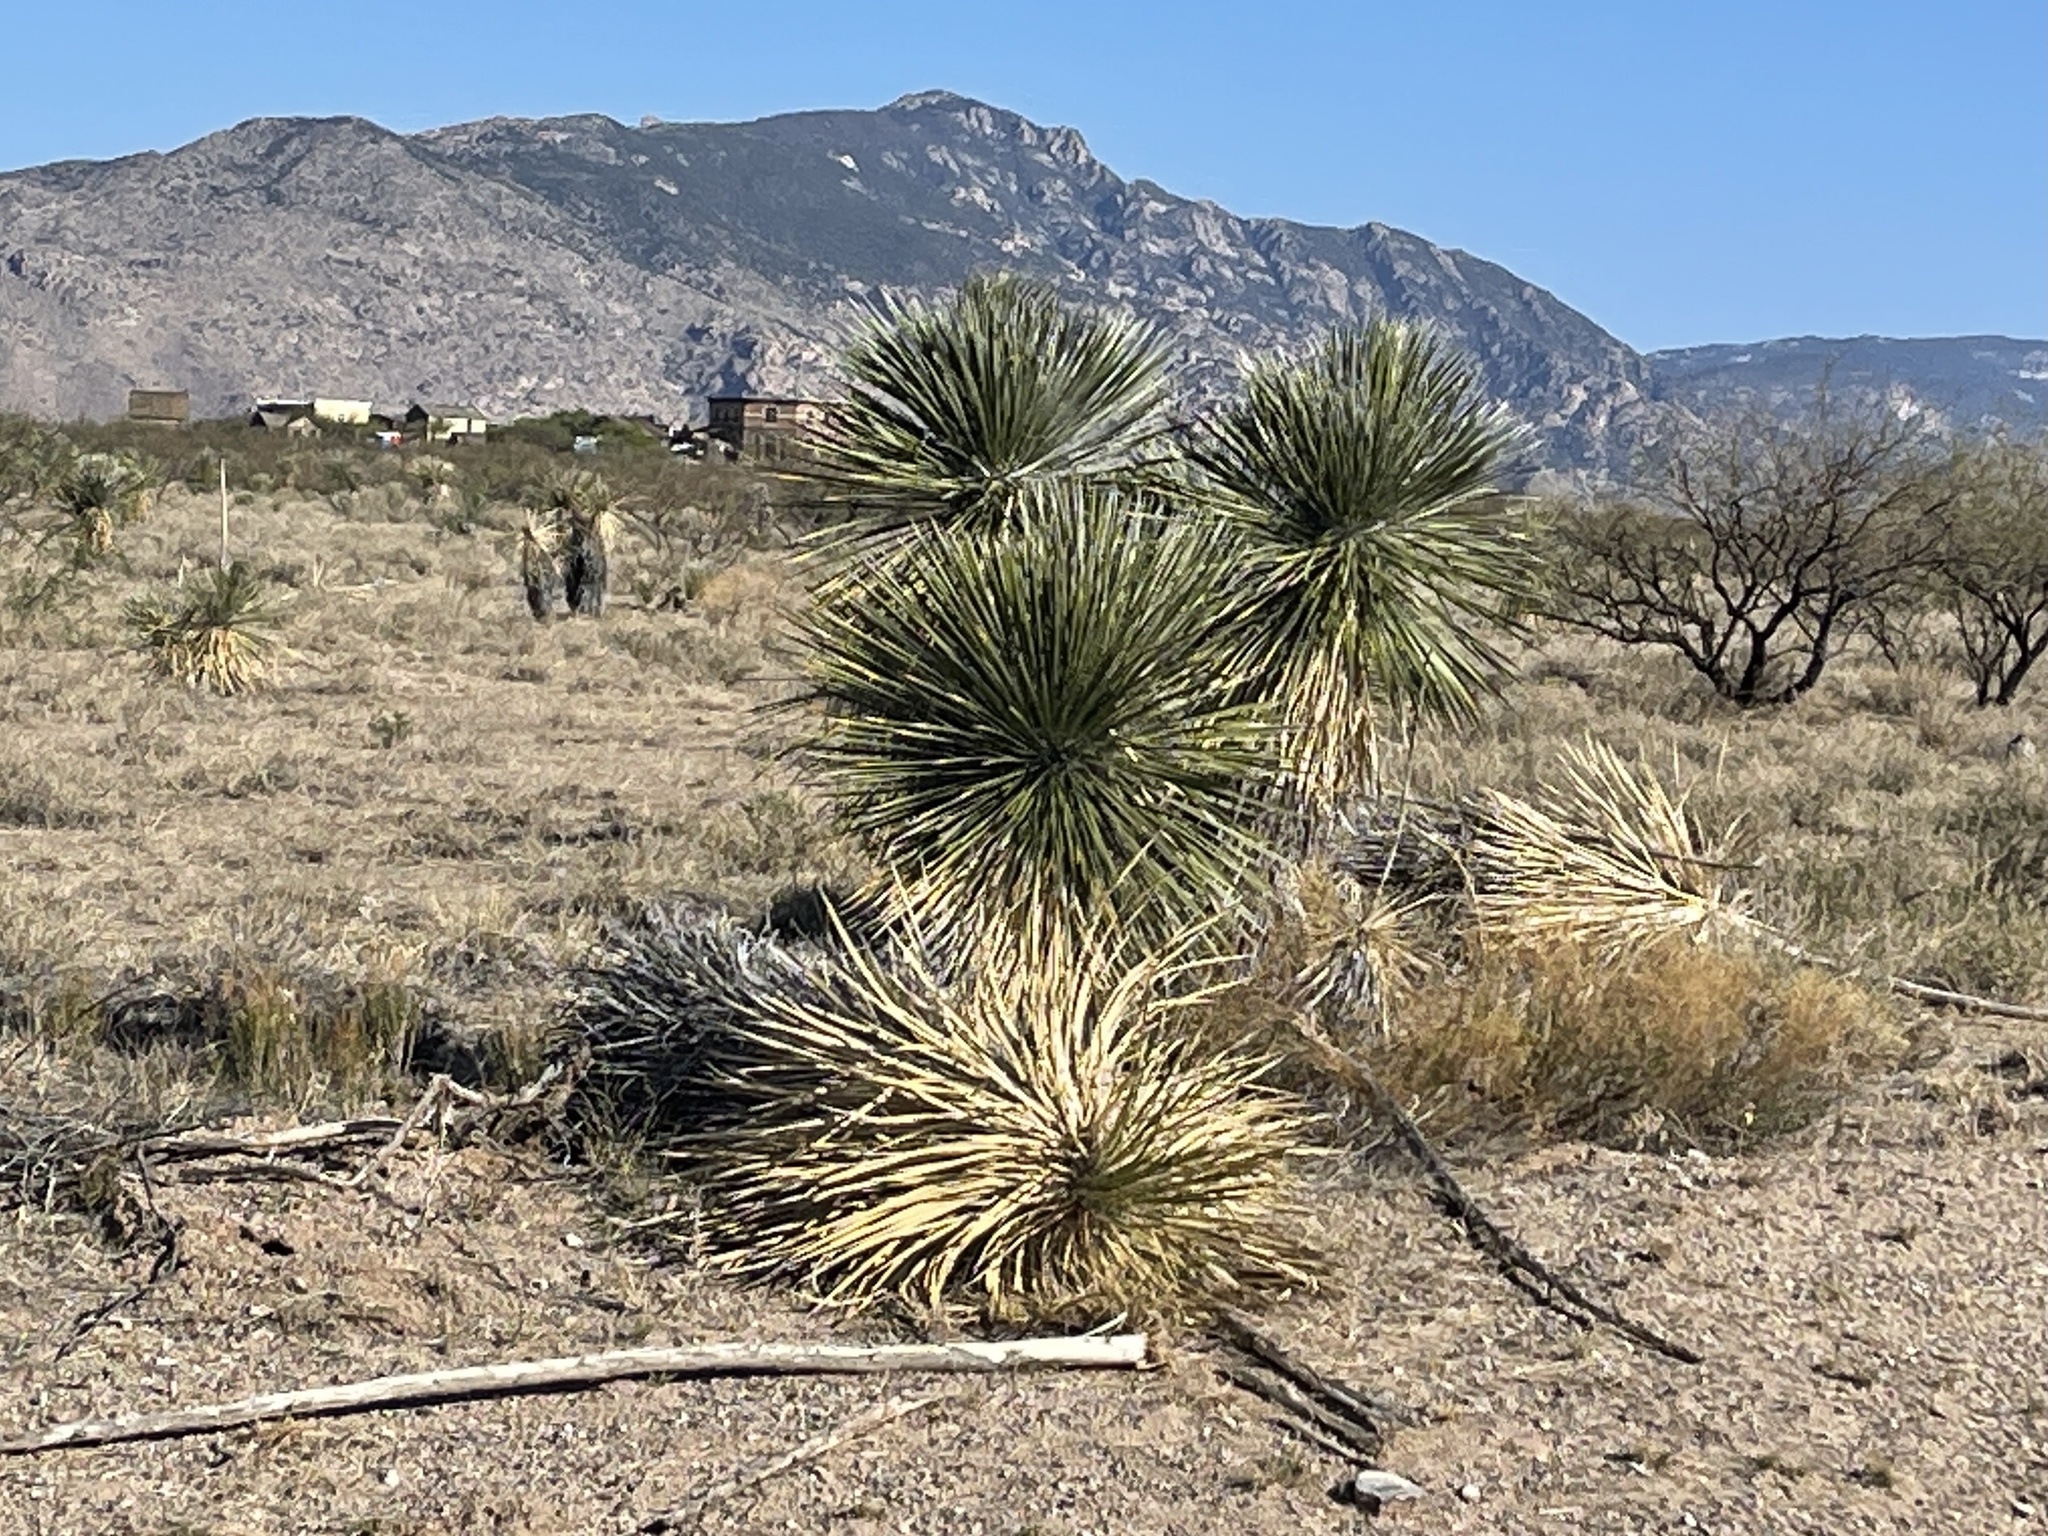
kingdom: Plantae
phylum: Tracheophyta
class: Liliopsida
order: Asparagales
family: Asparagaceae
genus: Yucca
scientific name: Yucca elata
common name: Palmella
